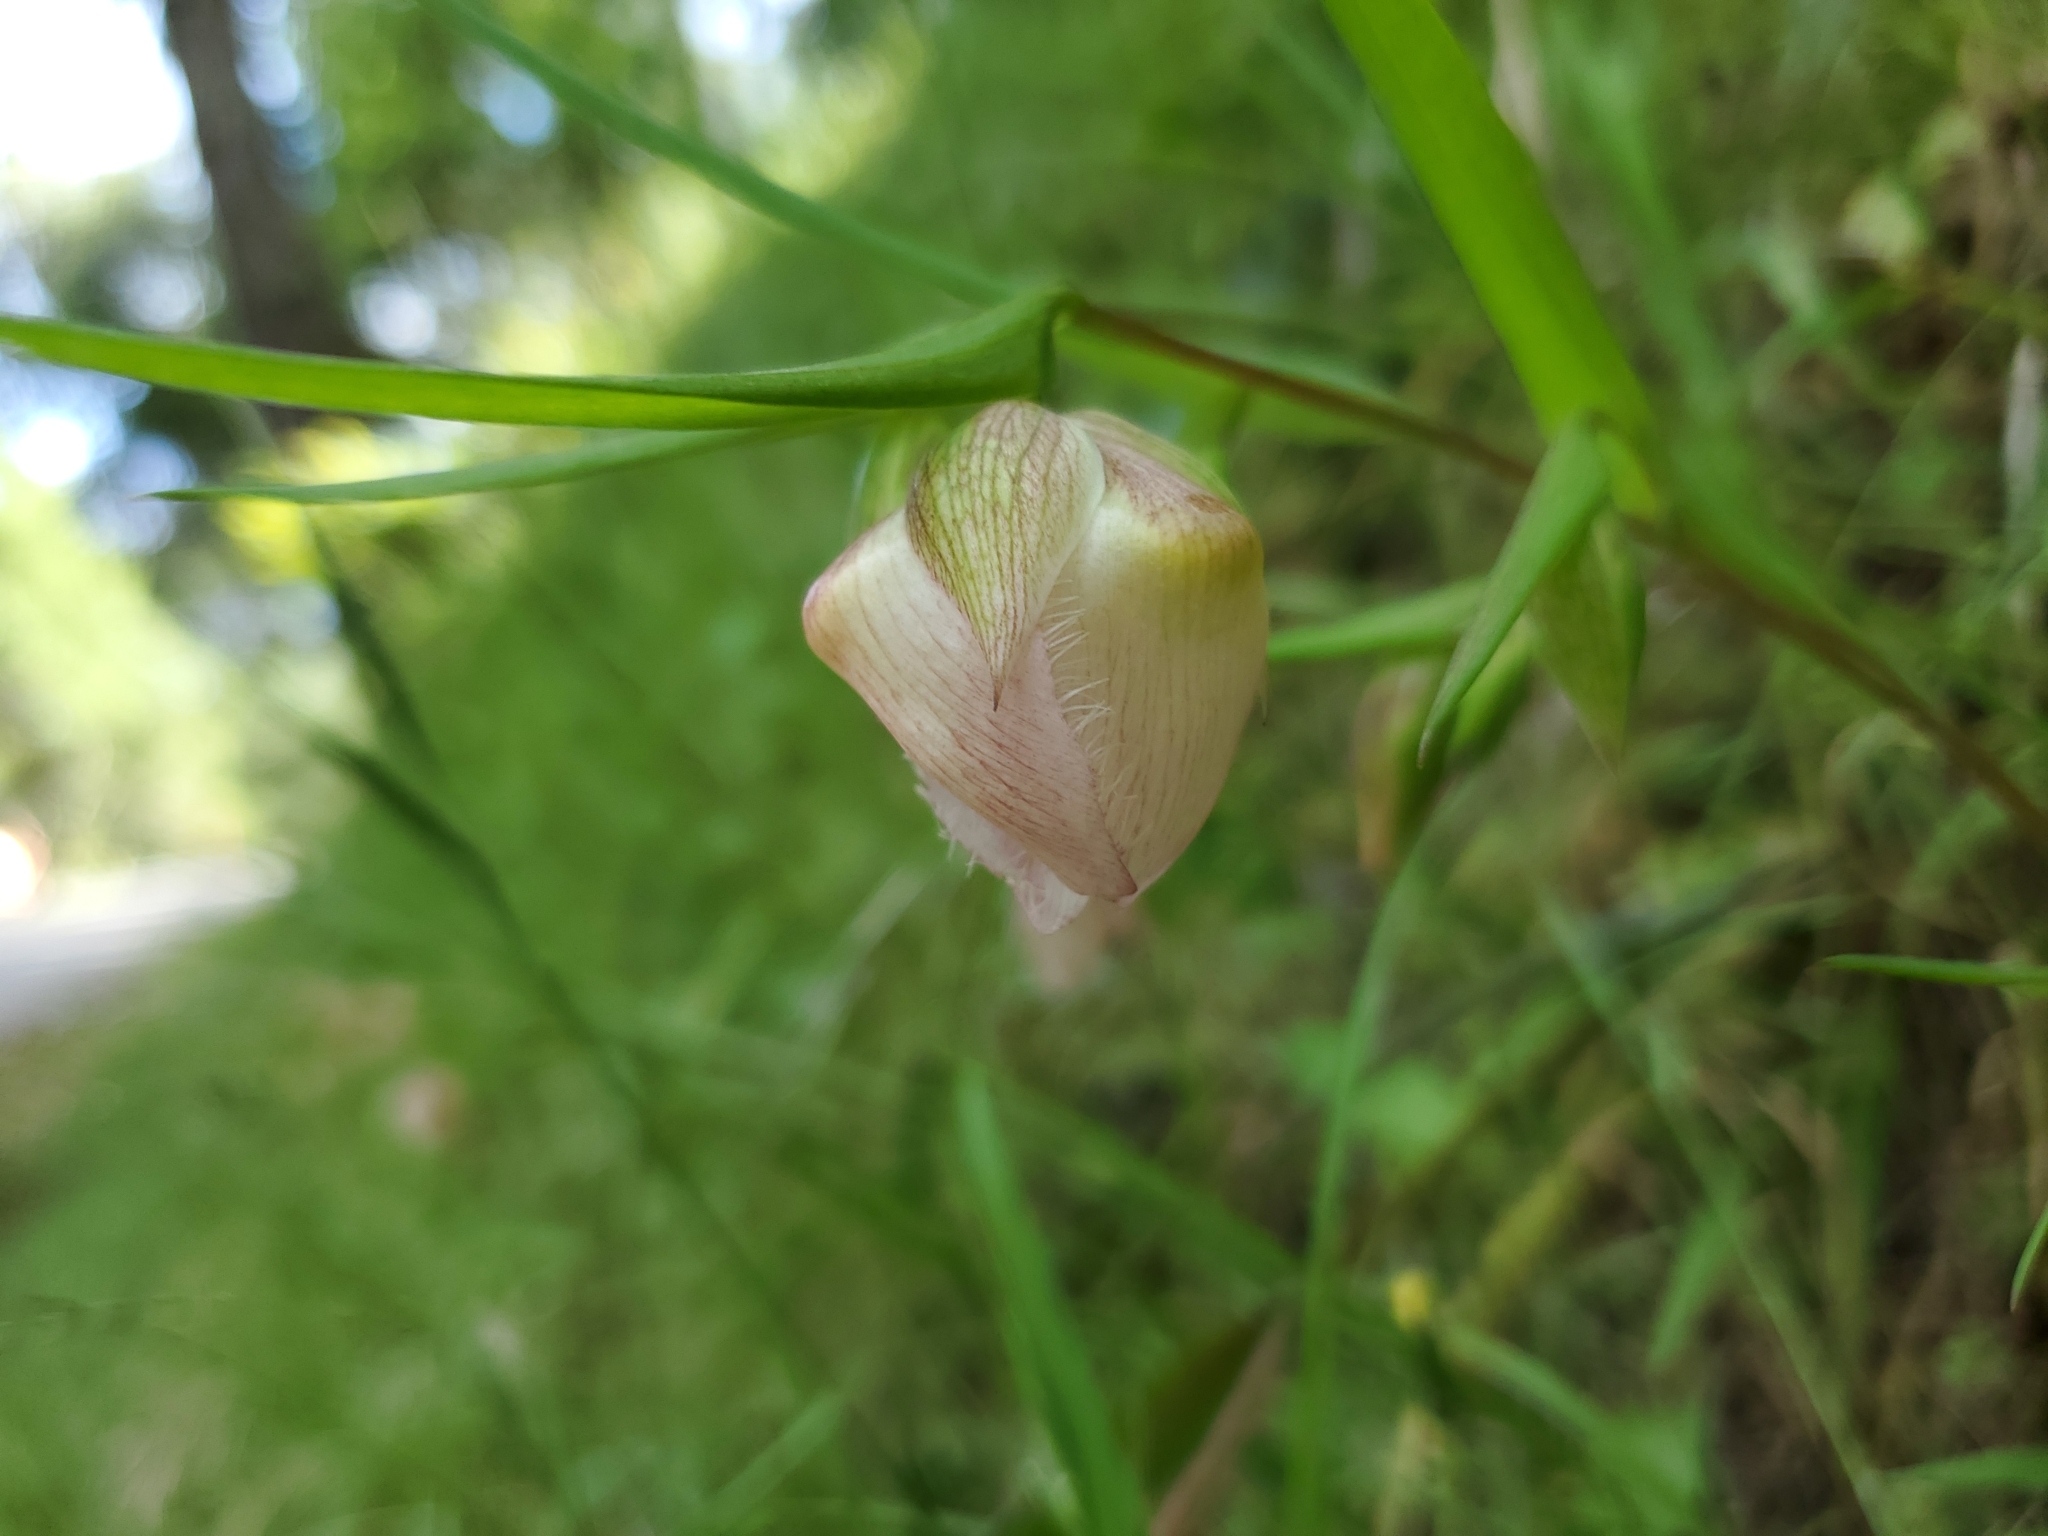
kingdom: Plantae
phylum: Tracheophyta
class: Liliopsida
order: Liliales
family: Liliaceae
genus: Calochortus
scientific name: Calochortus albus
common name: Fairy-lantern
